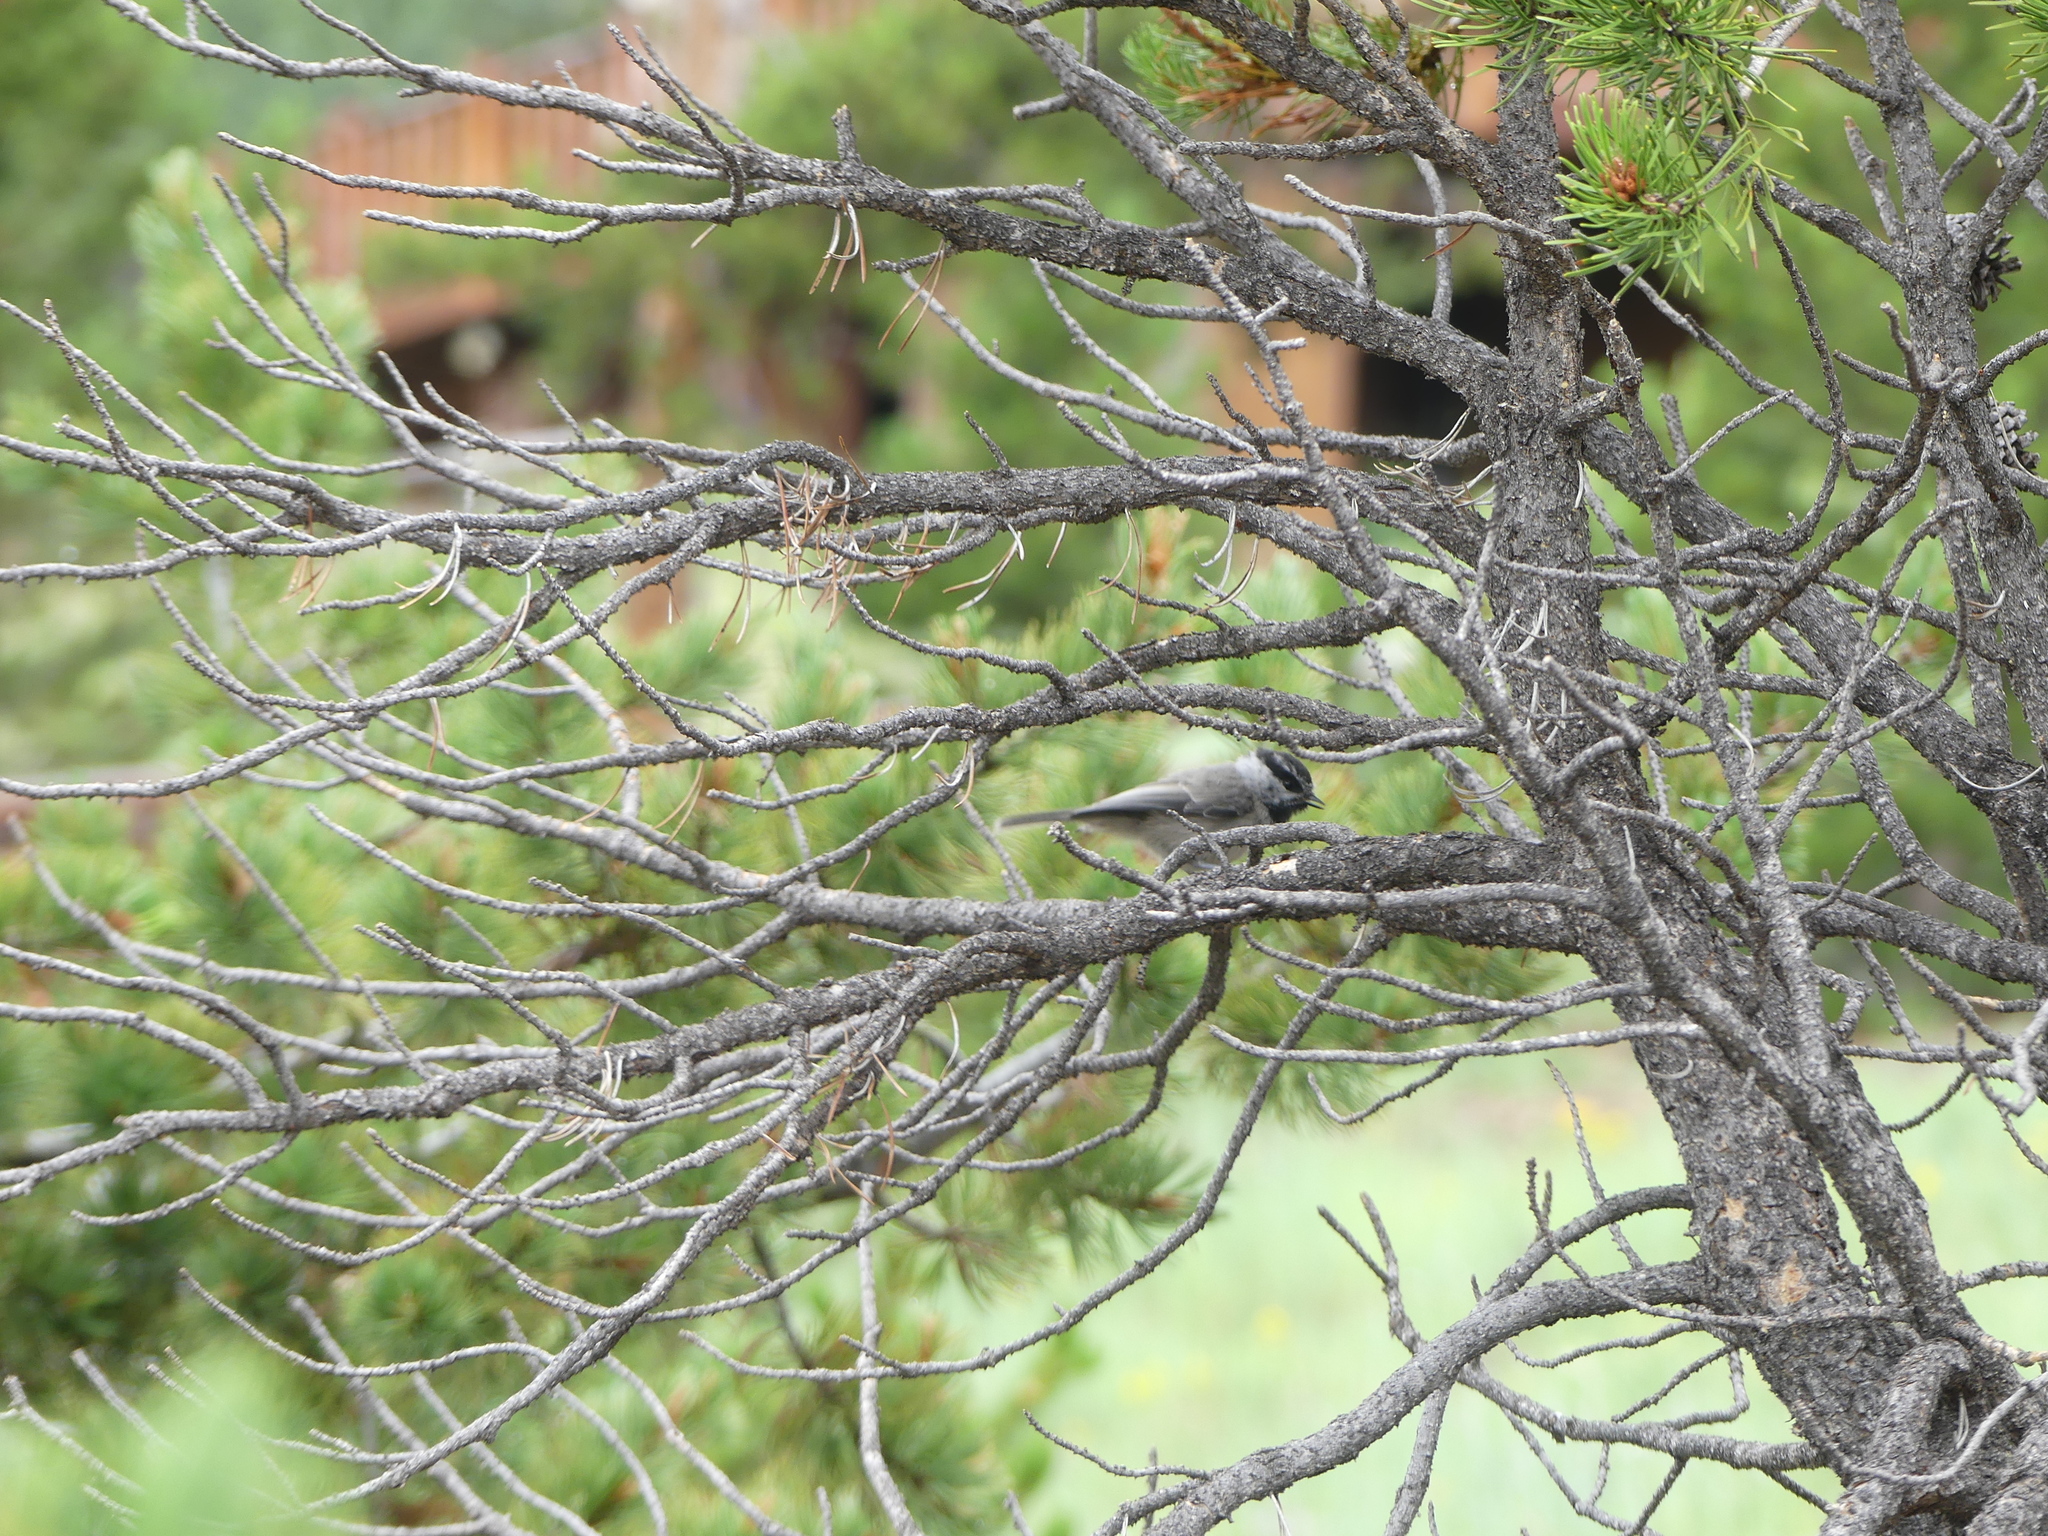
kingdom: Animalia
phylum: Chordata
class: Aves
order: Passeriformes
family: Paridae
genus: Poecile
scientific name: Poecile gambeli
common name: Mountain chickadee
